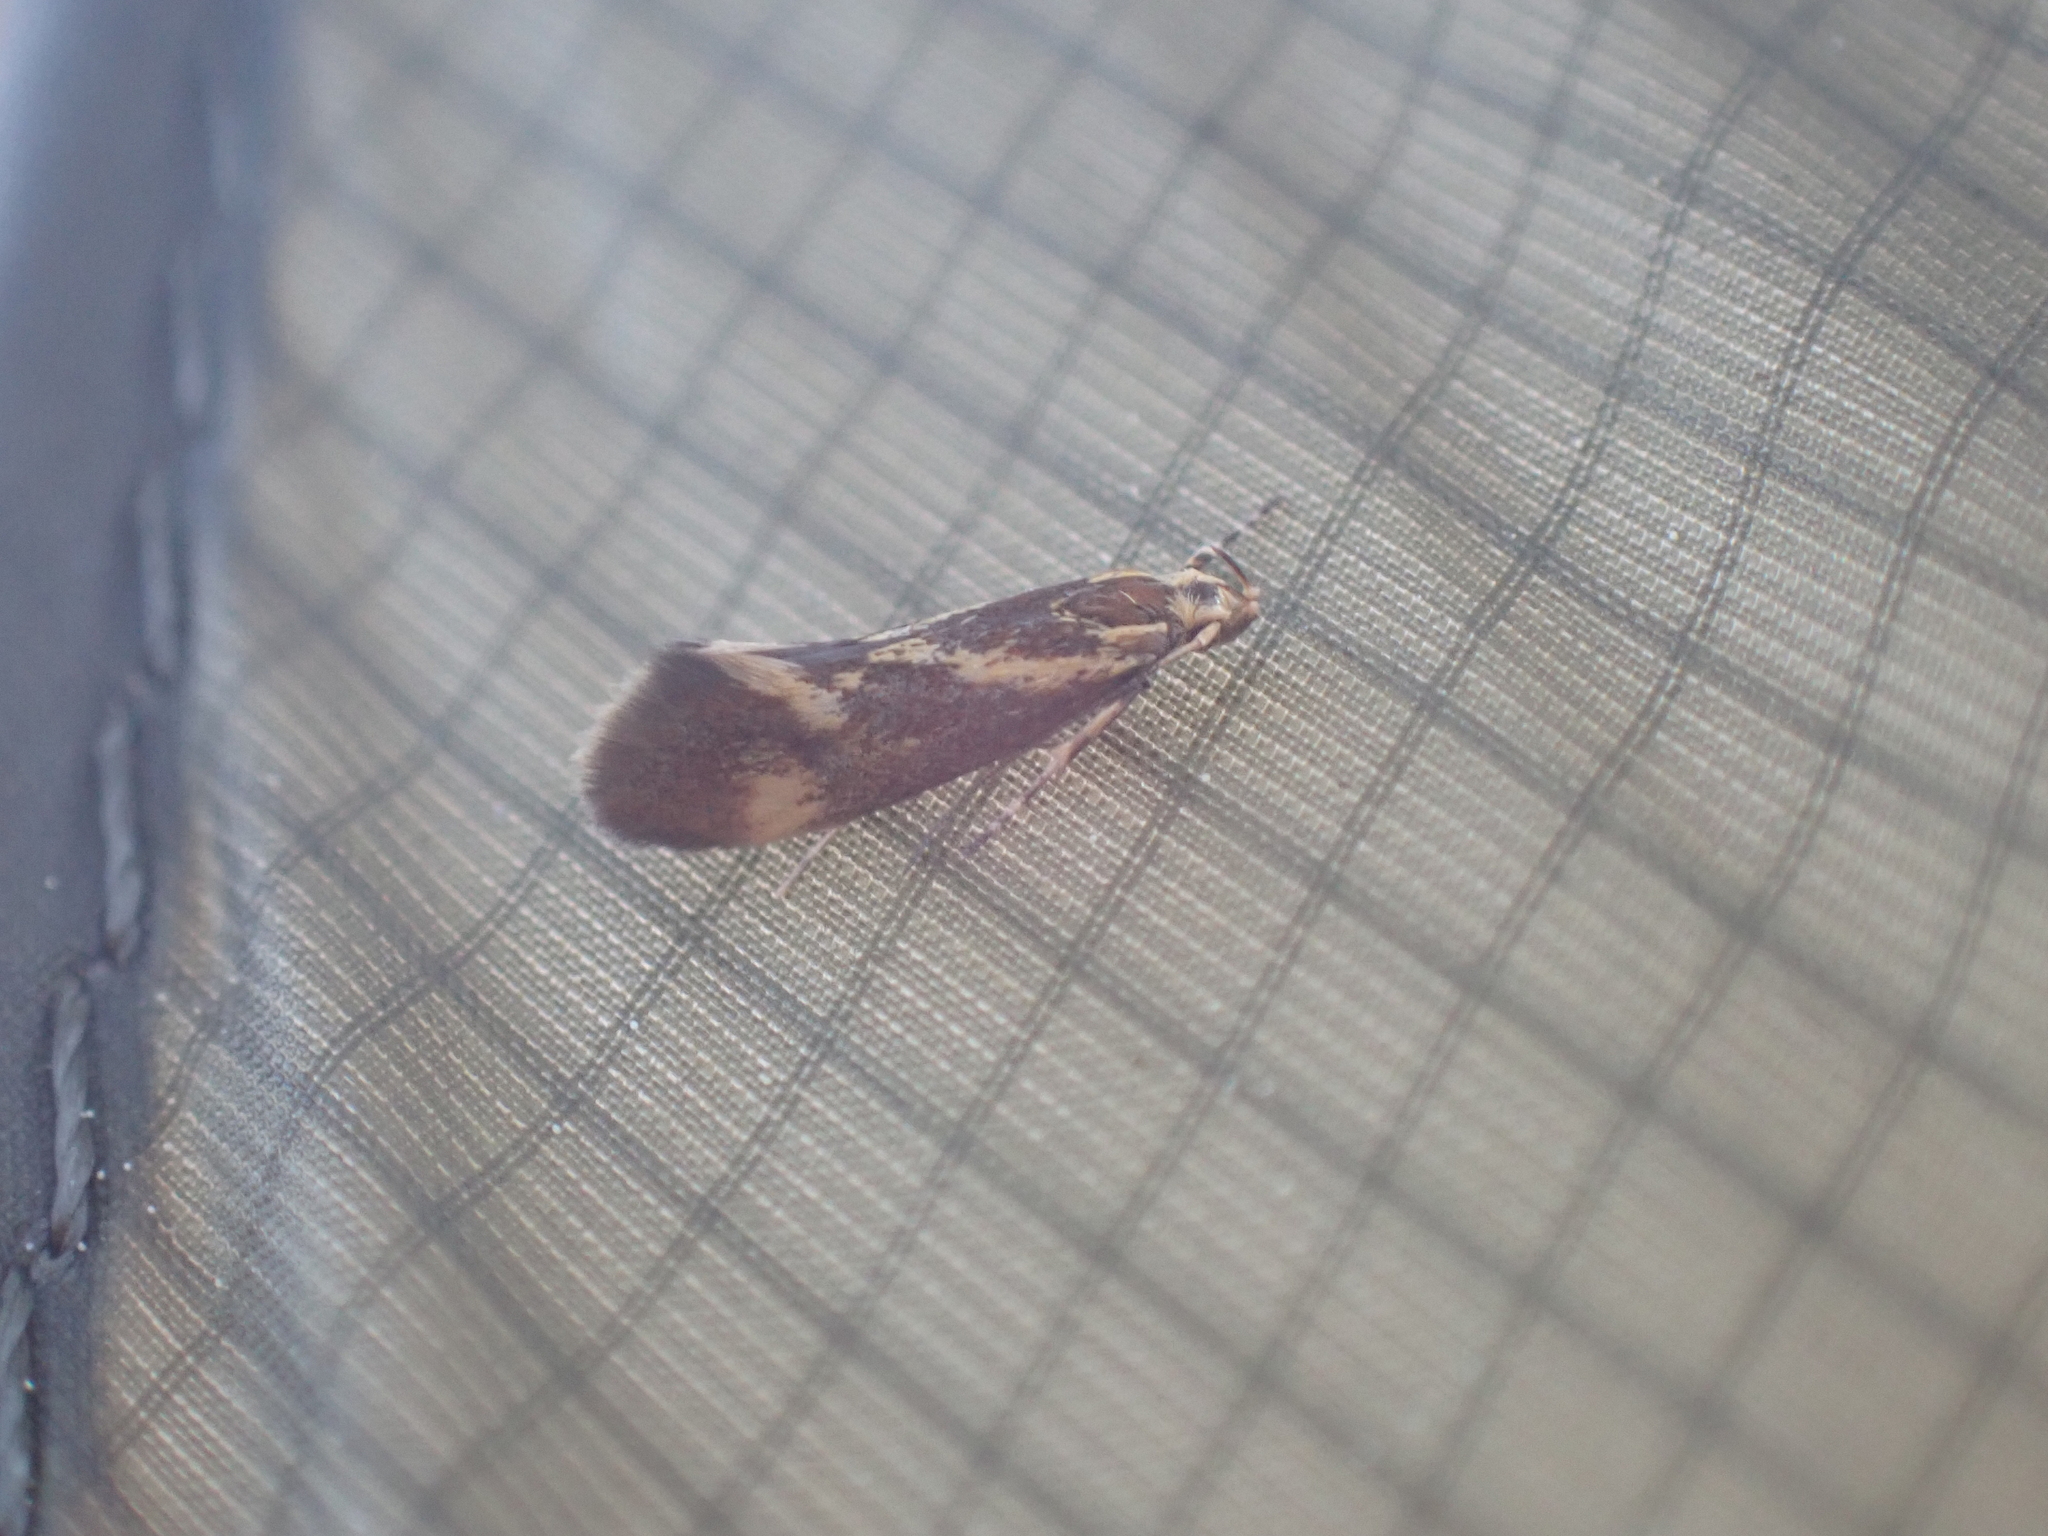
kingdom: Animalia
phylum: Arthropoda
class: Insecta
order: Lepidoptera
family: Oecophoridae
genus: Borkhausenia
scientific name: Borkhausenia cinnamomea
